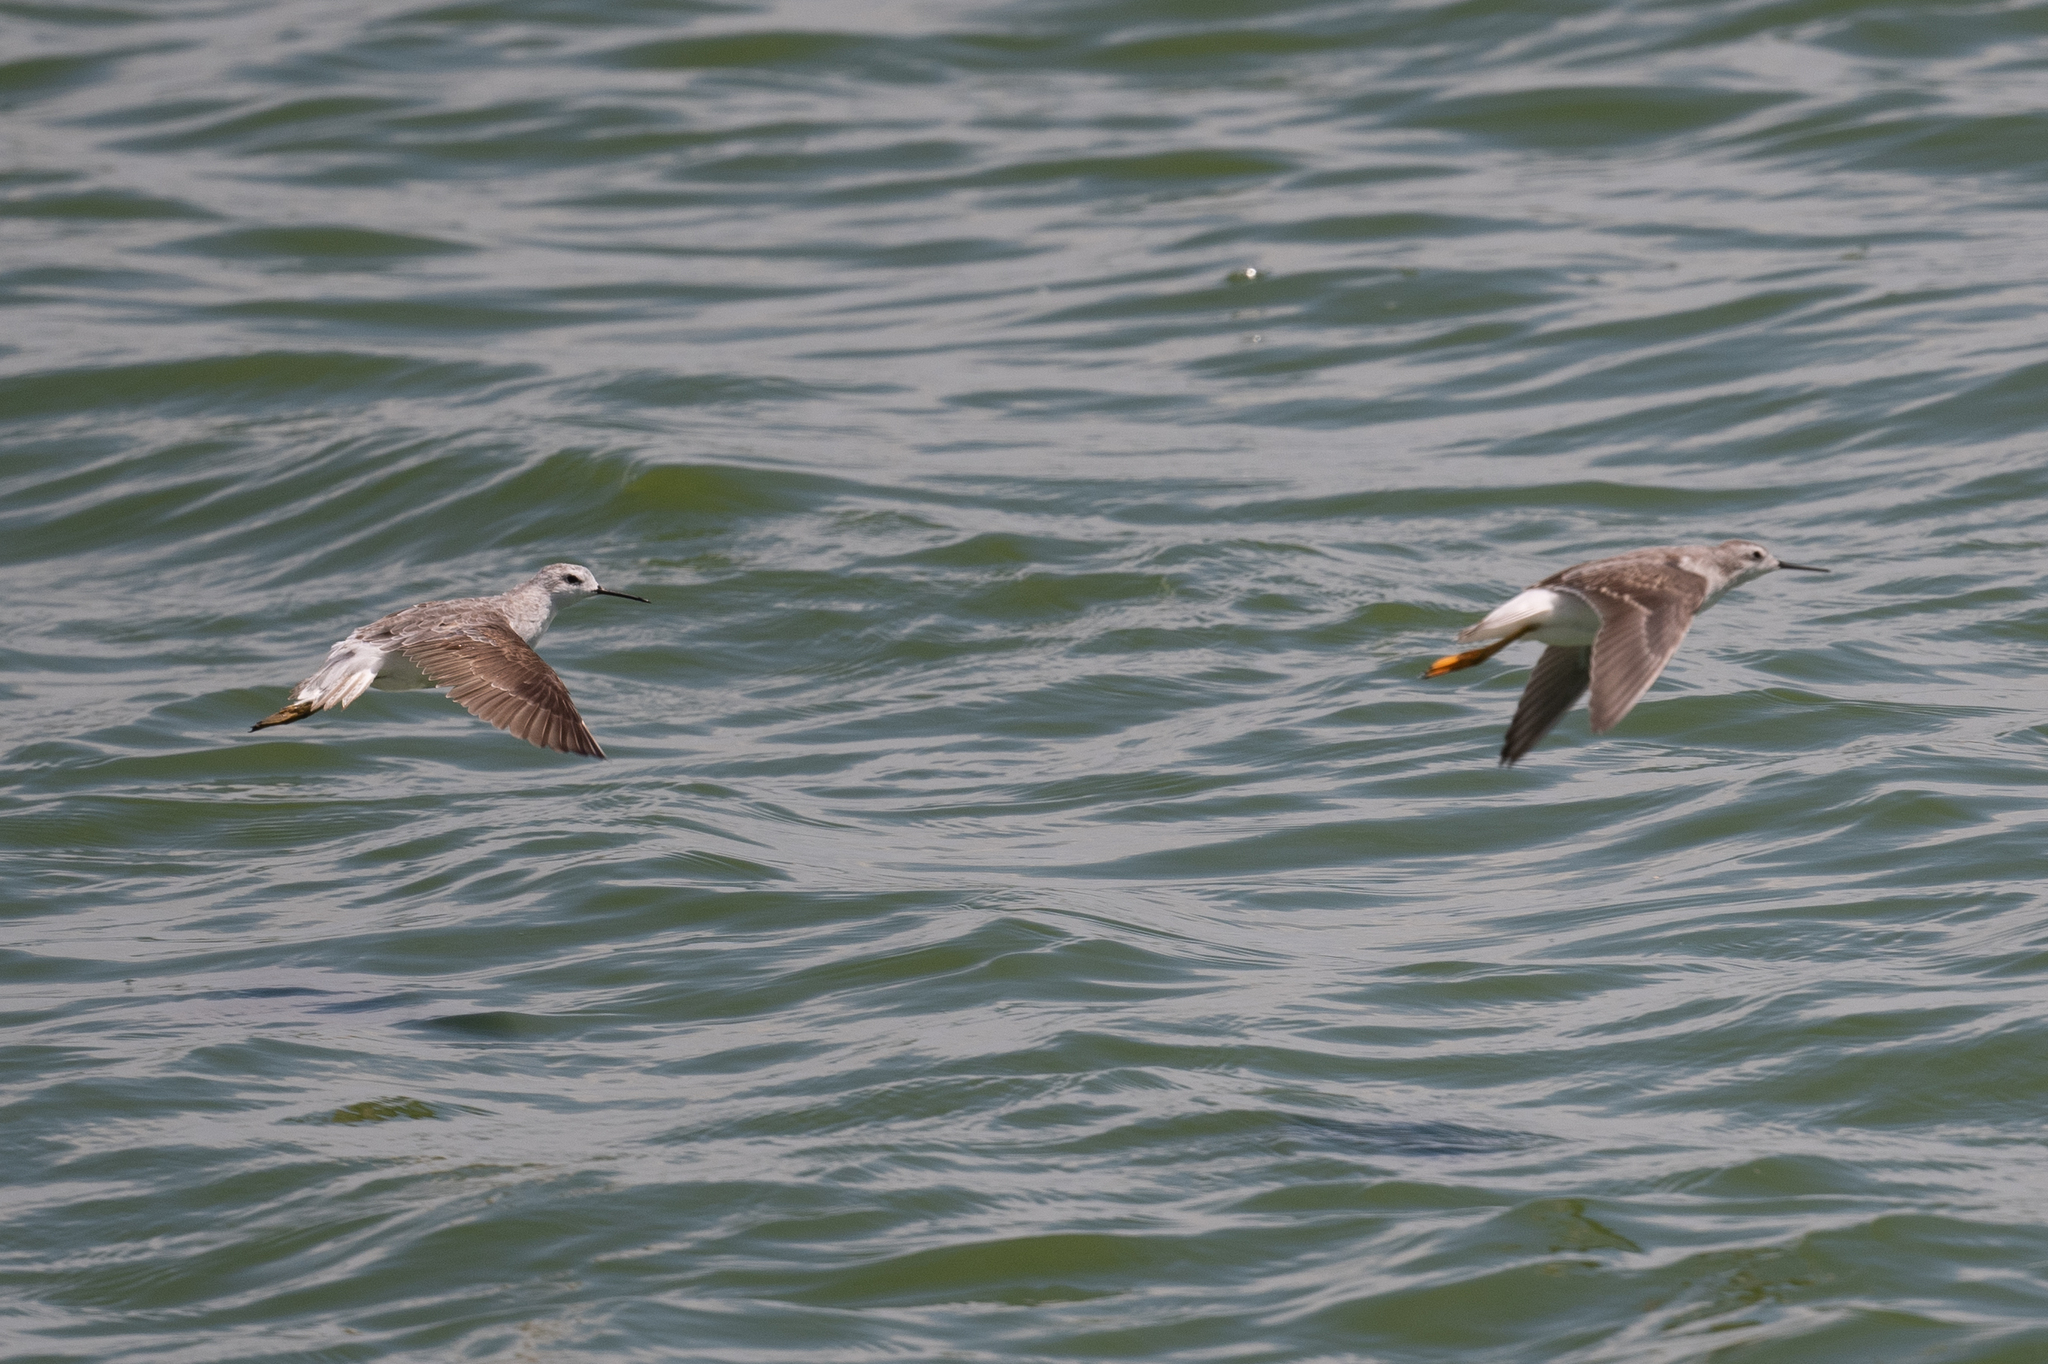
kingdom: Animalia
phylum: Chordata
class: Aves
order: Charadriiformes
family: Scolopacidae
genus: Phalaropus
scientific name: Phalaropus tricolor
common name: Wilson's phalarope
